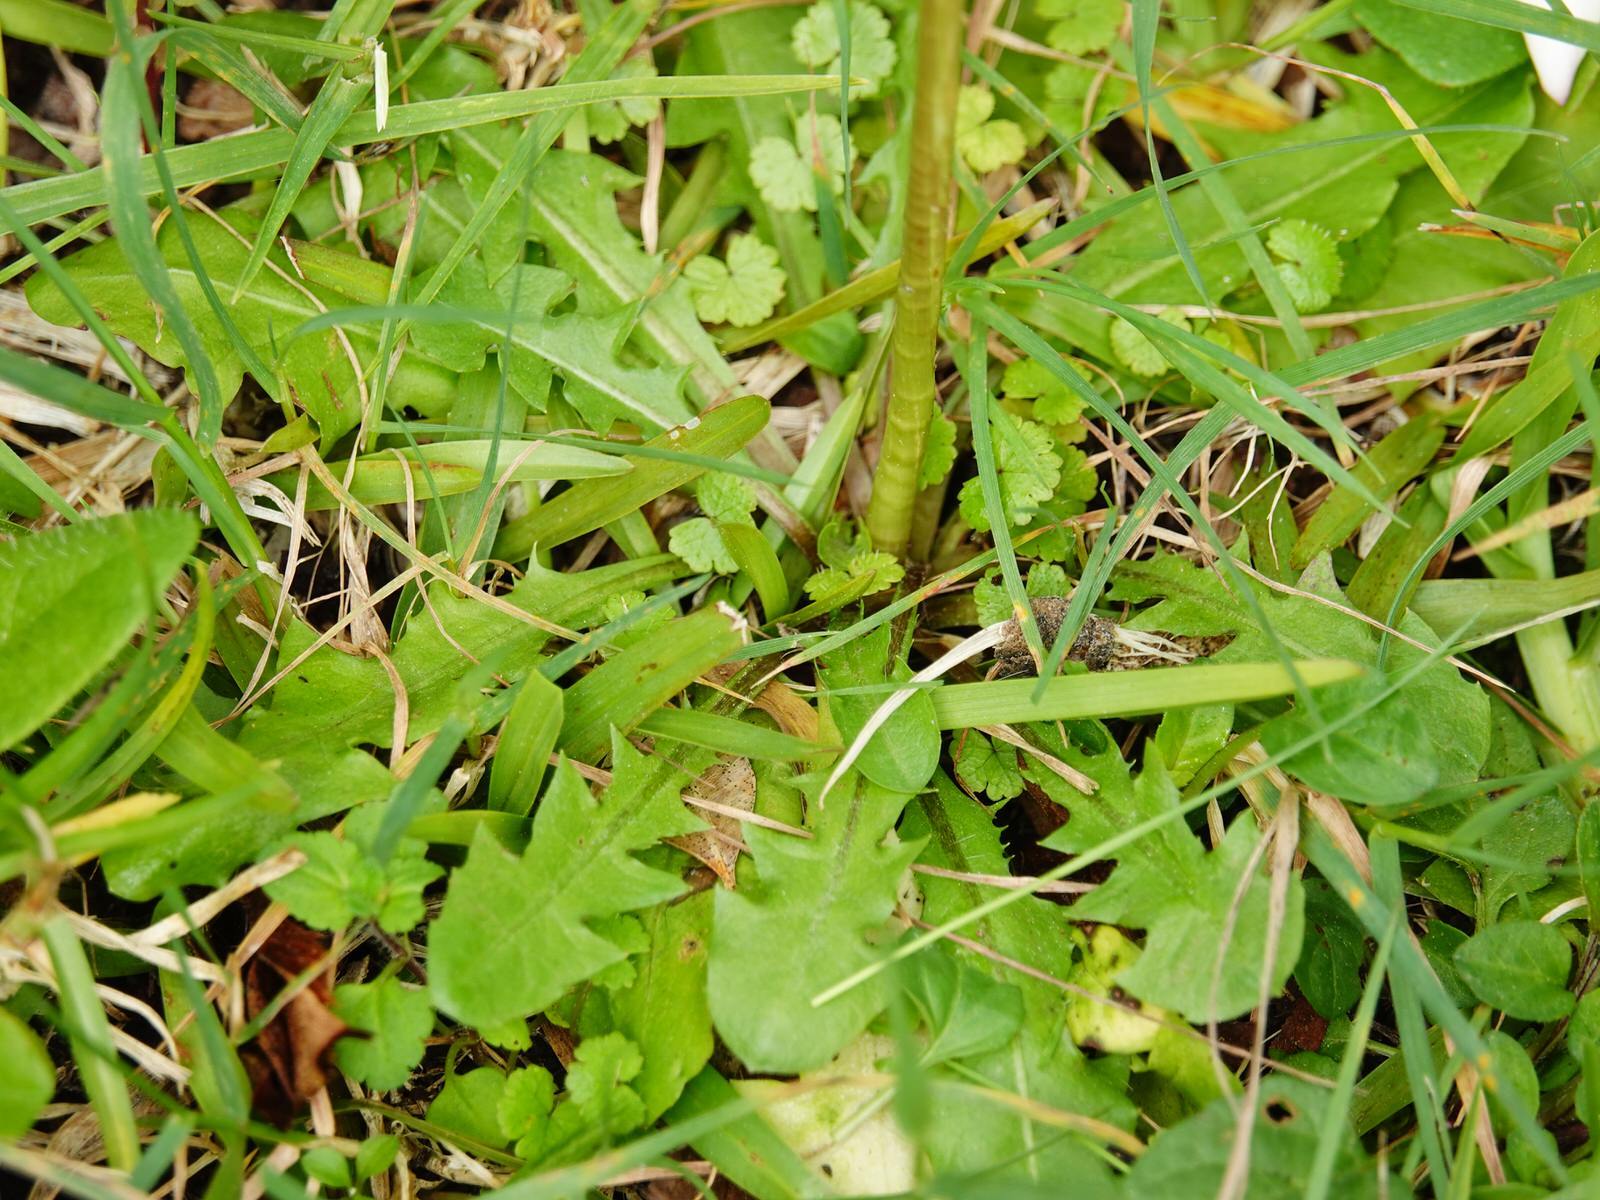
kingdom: Plantae
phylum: Tracheophyta
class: Magnoliopsida
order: Asterales
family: Asteraceae
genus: Taraxacum
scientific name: Taraxacum officinale
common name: Common dandelion
